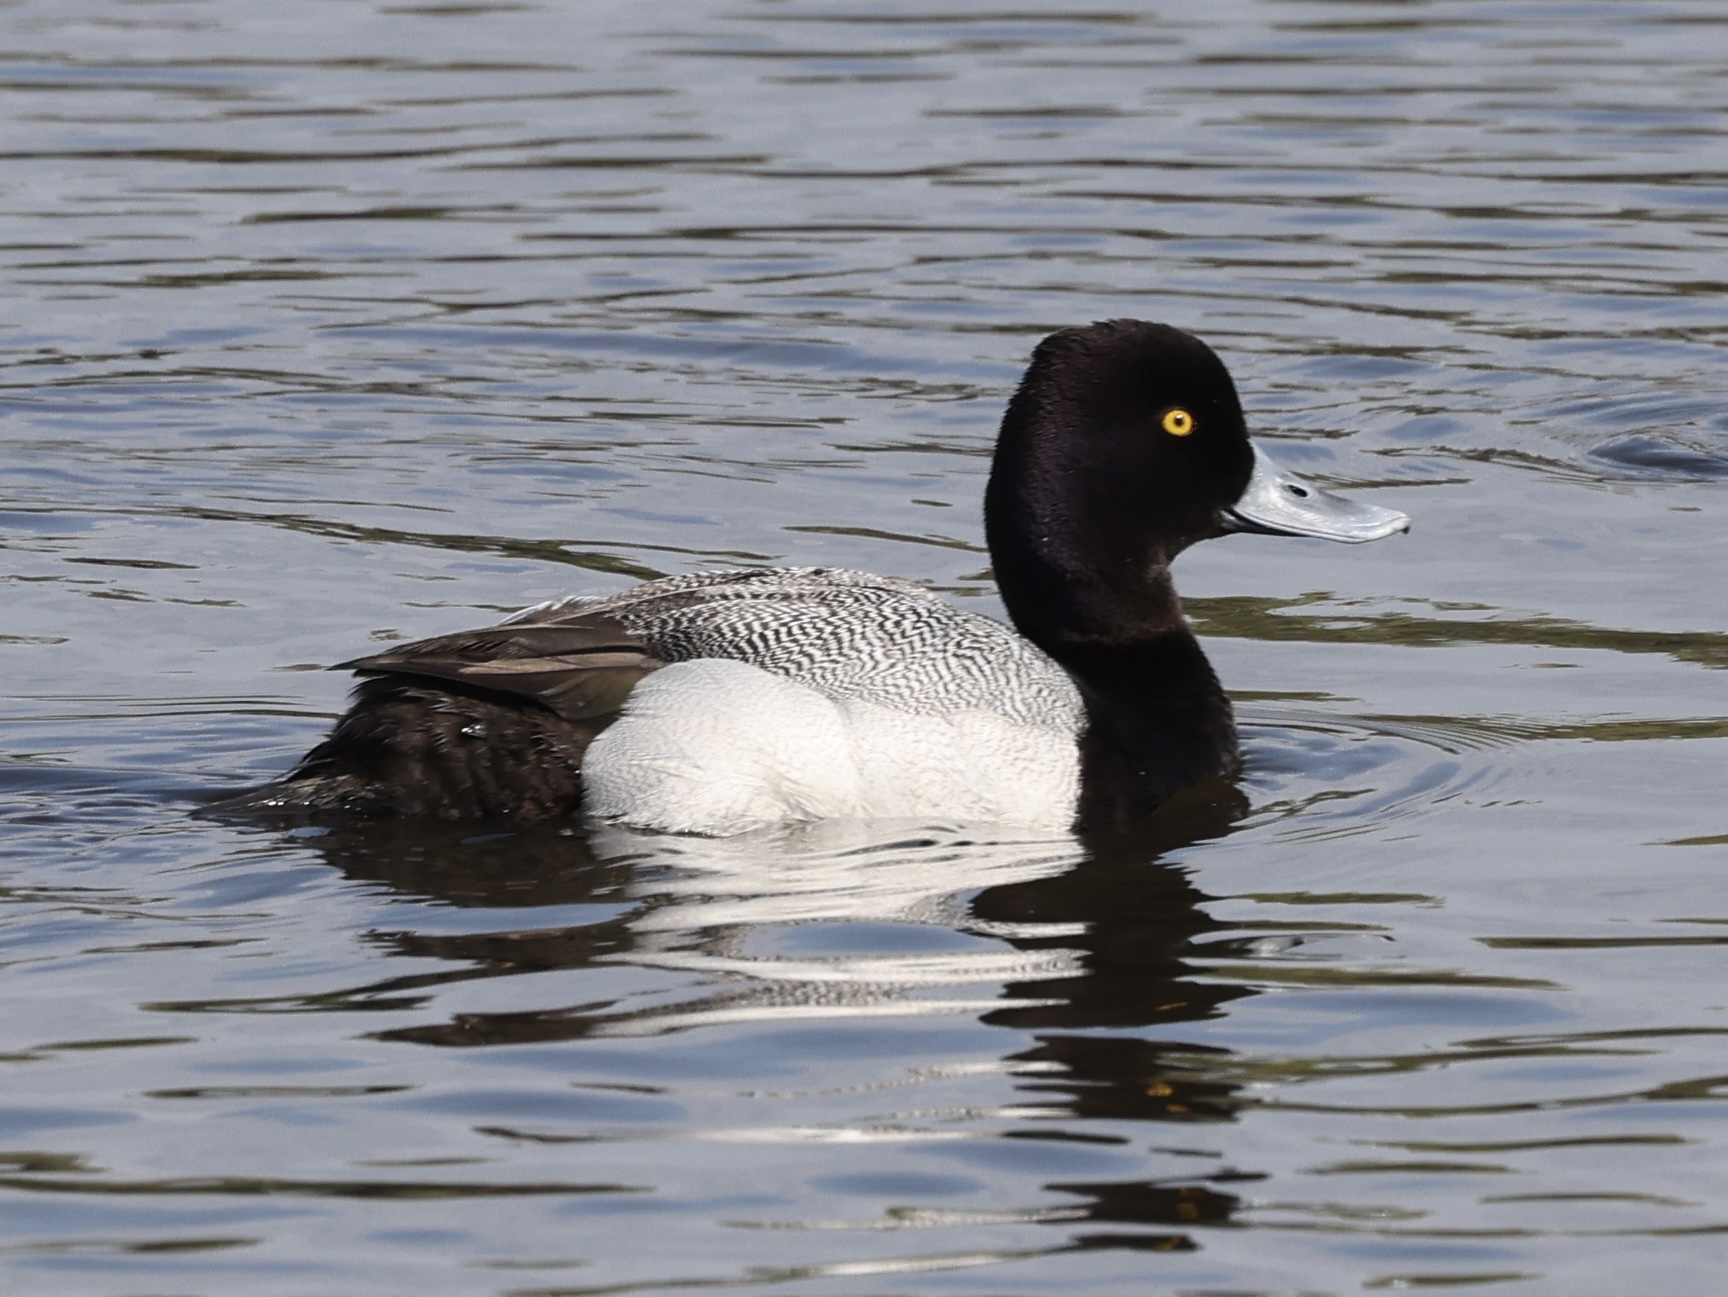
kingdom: Animalia
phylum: Chordata
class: Aves
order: Anseriformes
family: Anatidae
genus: Aythya
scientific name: Aythya affinis
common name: Lesser scaup
